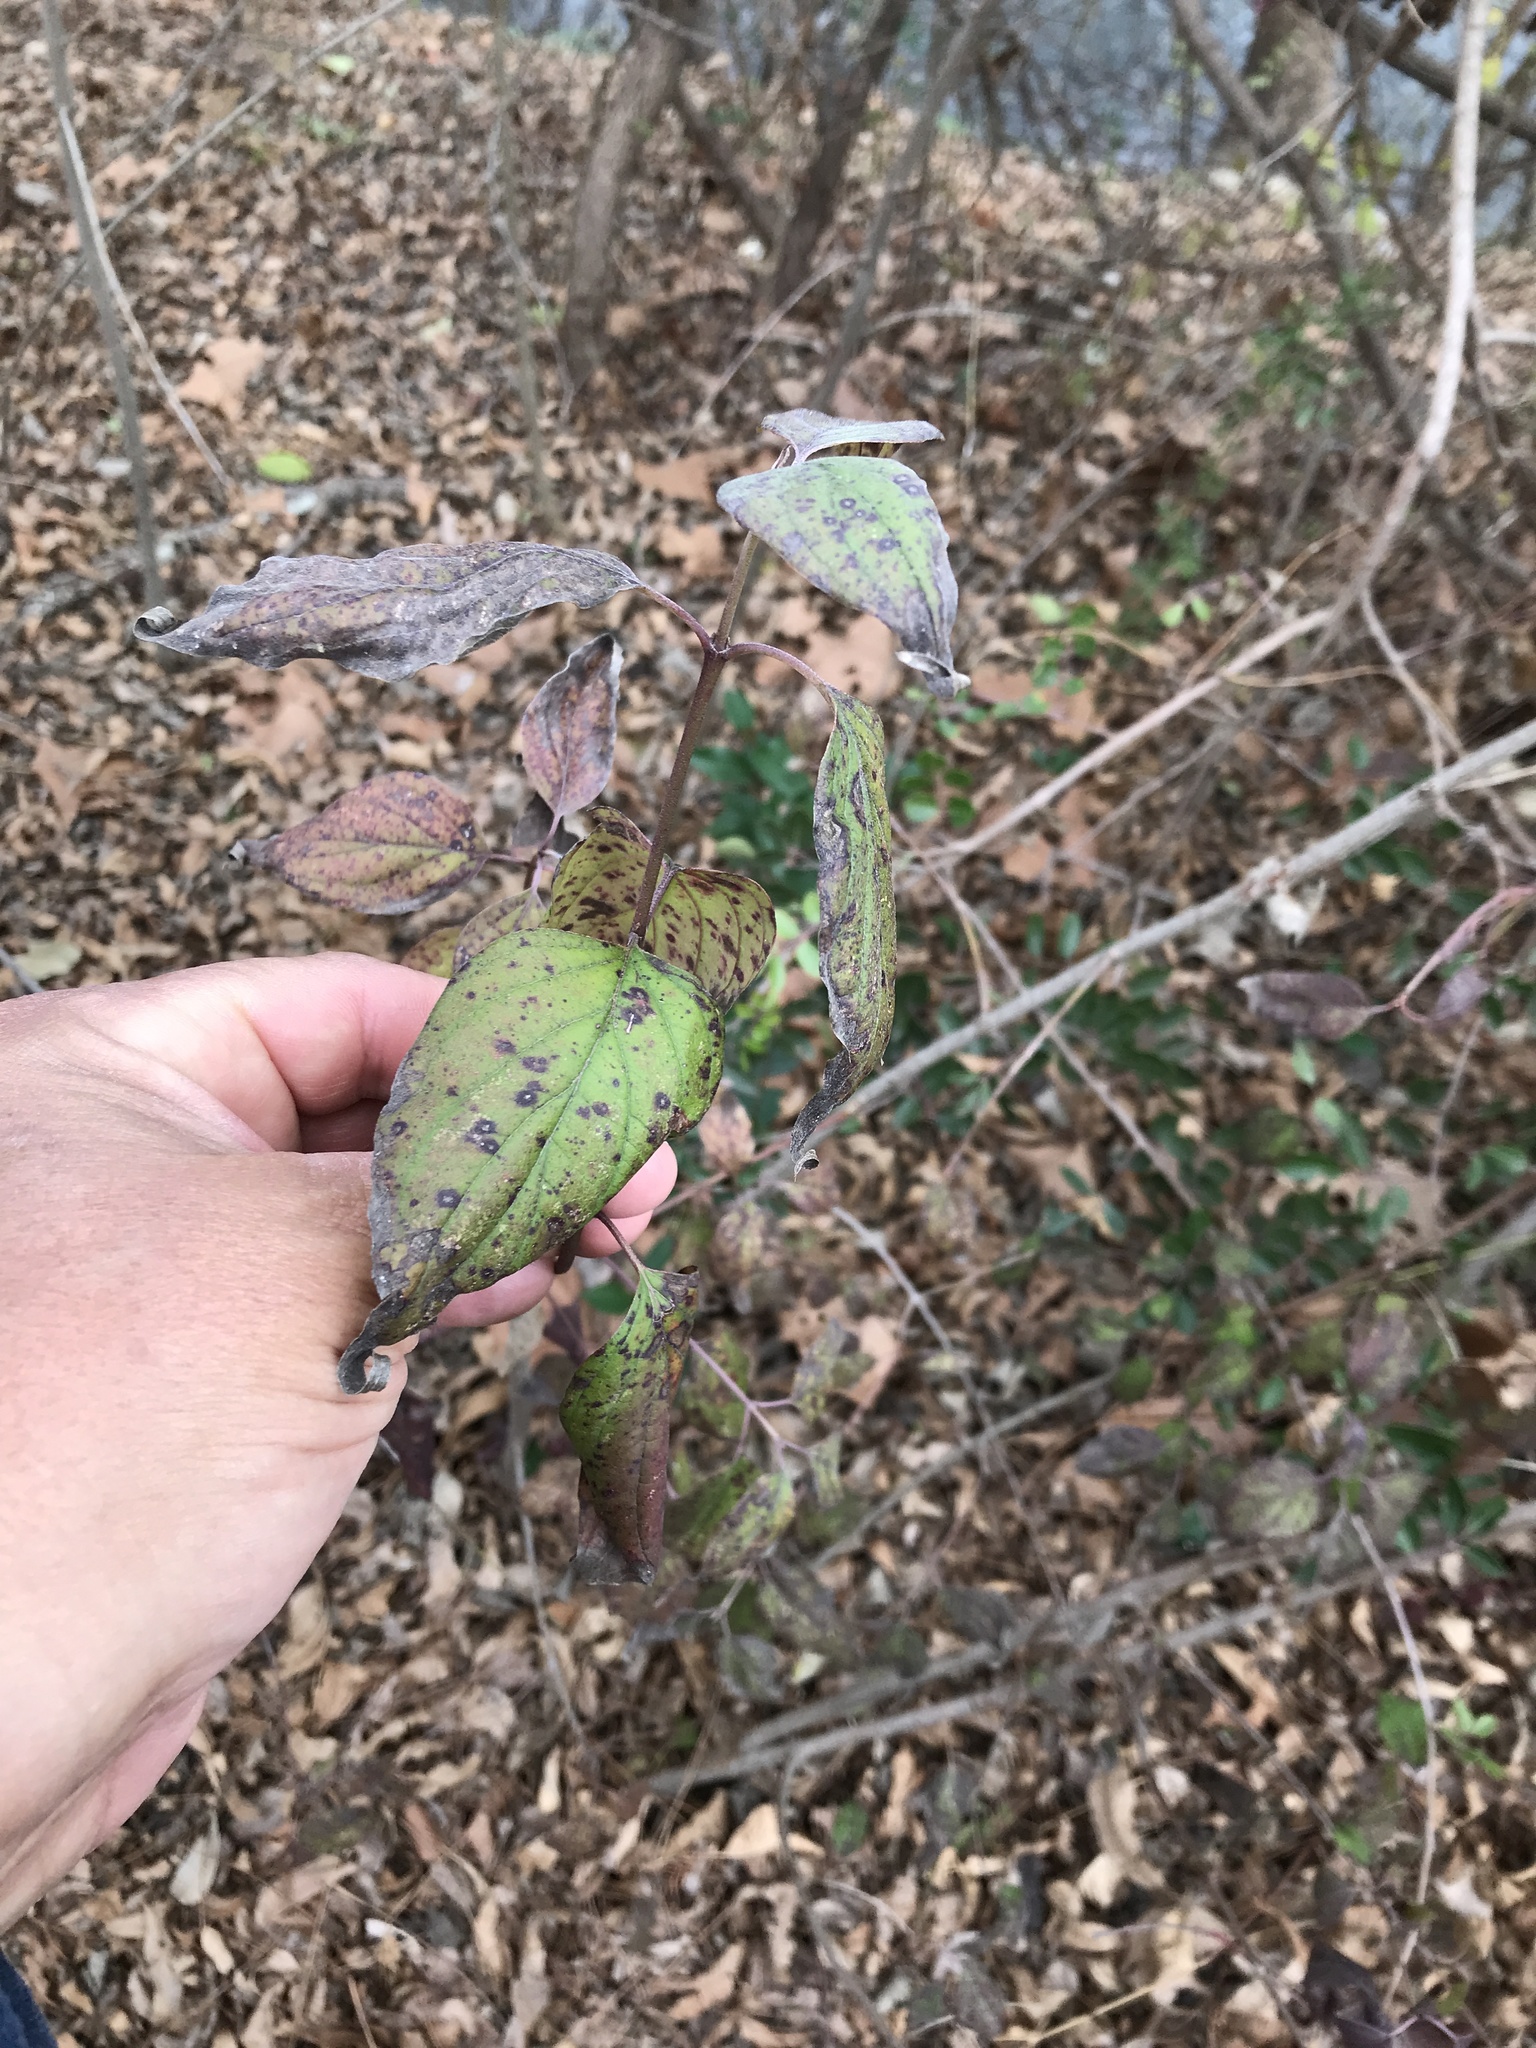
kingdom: Plantae
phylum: Tracheophyta
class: Magnoliopsida
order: Cornales
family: Cornaceae
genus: Cornus
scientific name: Cornus drummondii
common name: Rough-leaf dogwood
